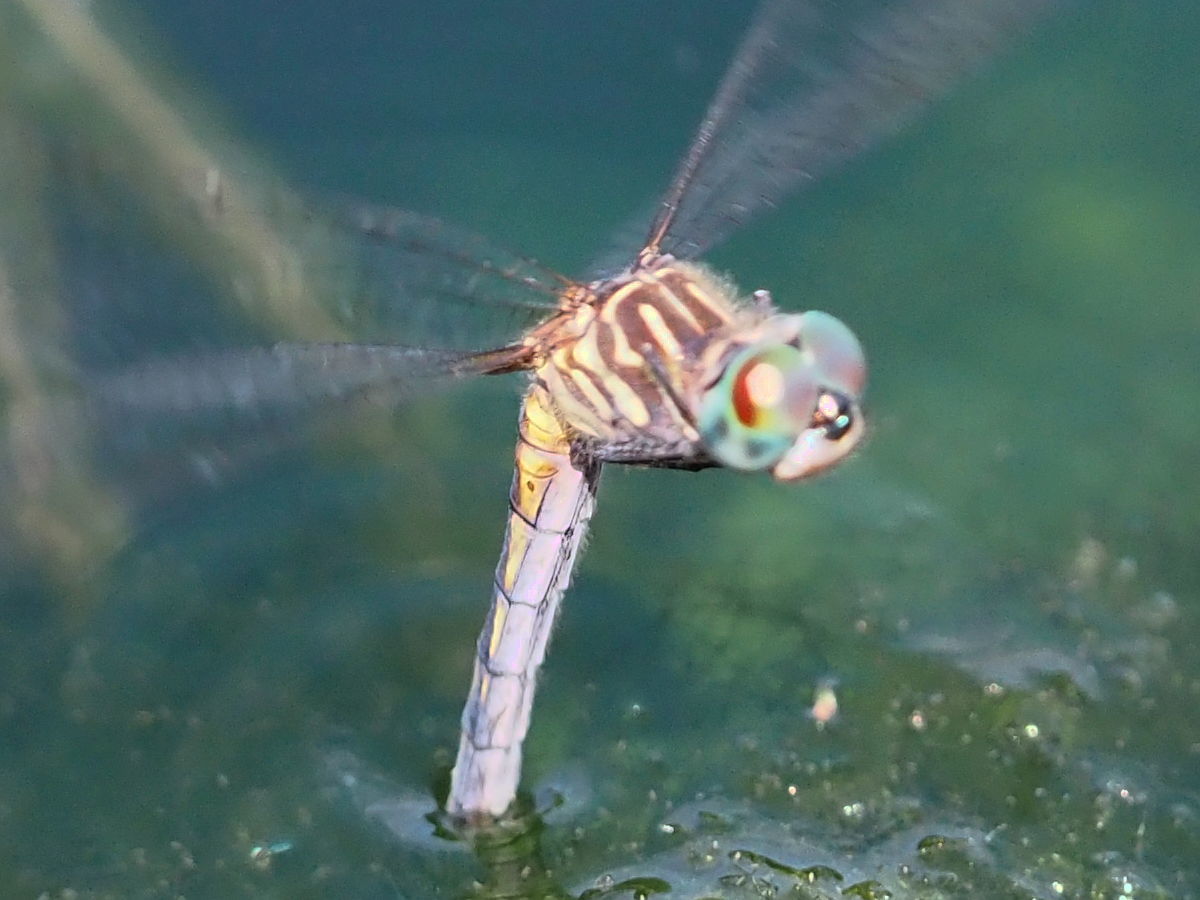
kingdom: Animalia
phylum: Arthropoda
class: Insecta
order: Odonata
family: Libellulidae
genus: Pachydiplax
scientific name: Pachydiplax longipennis
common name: Blue dasher
